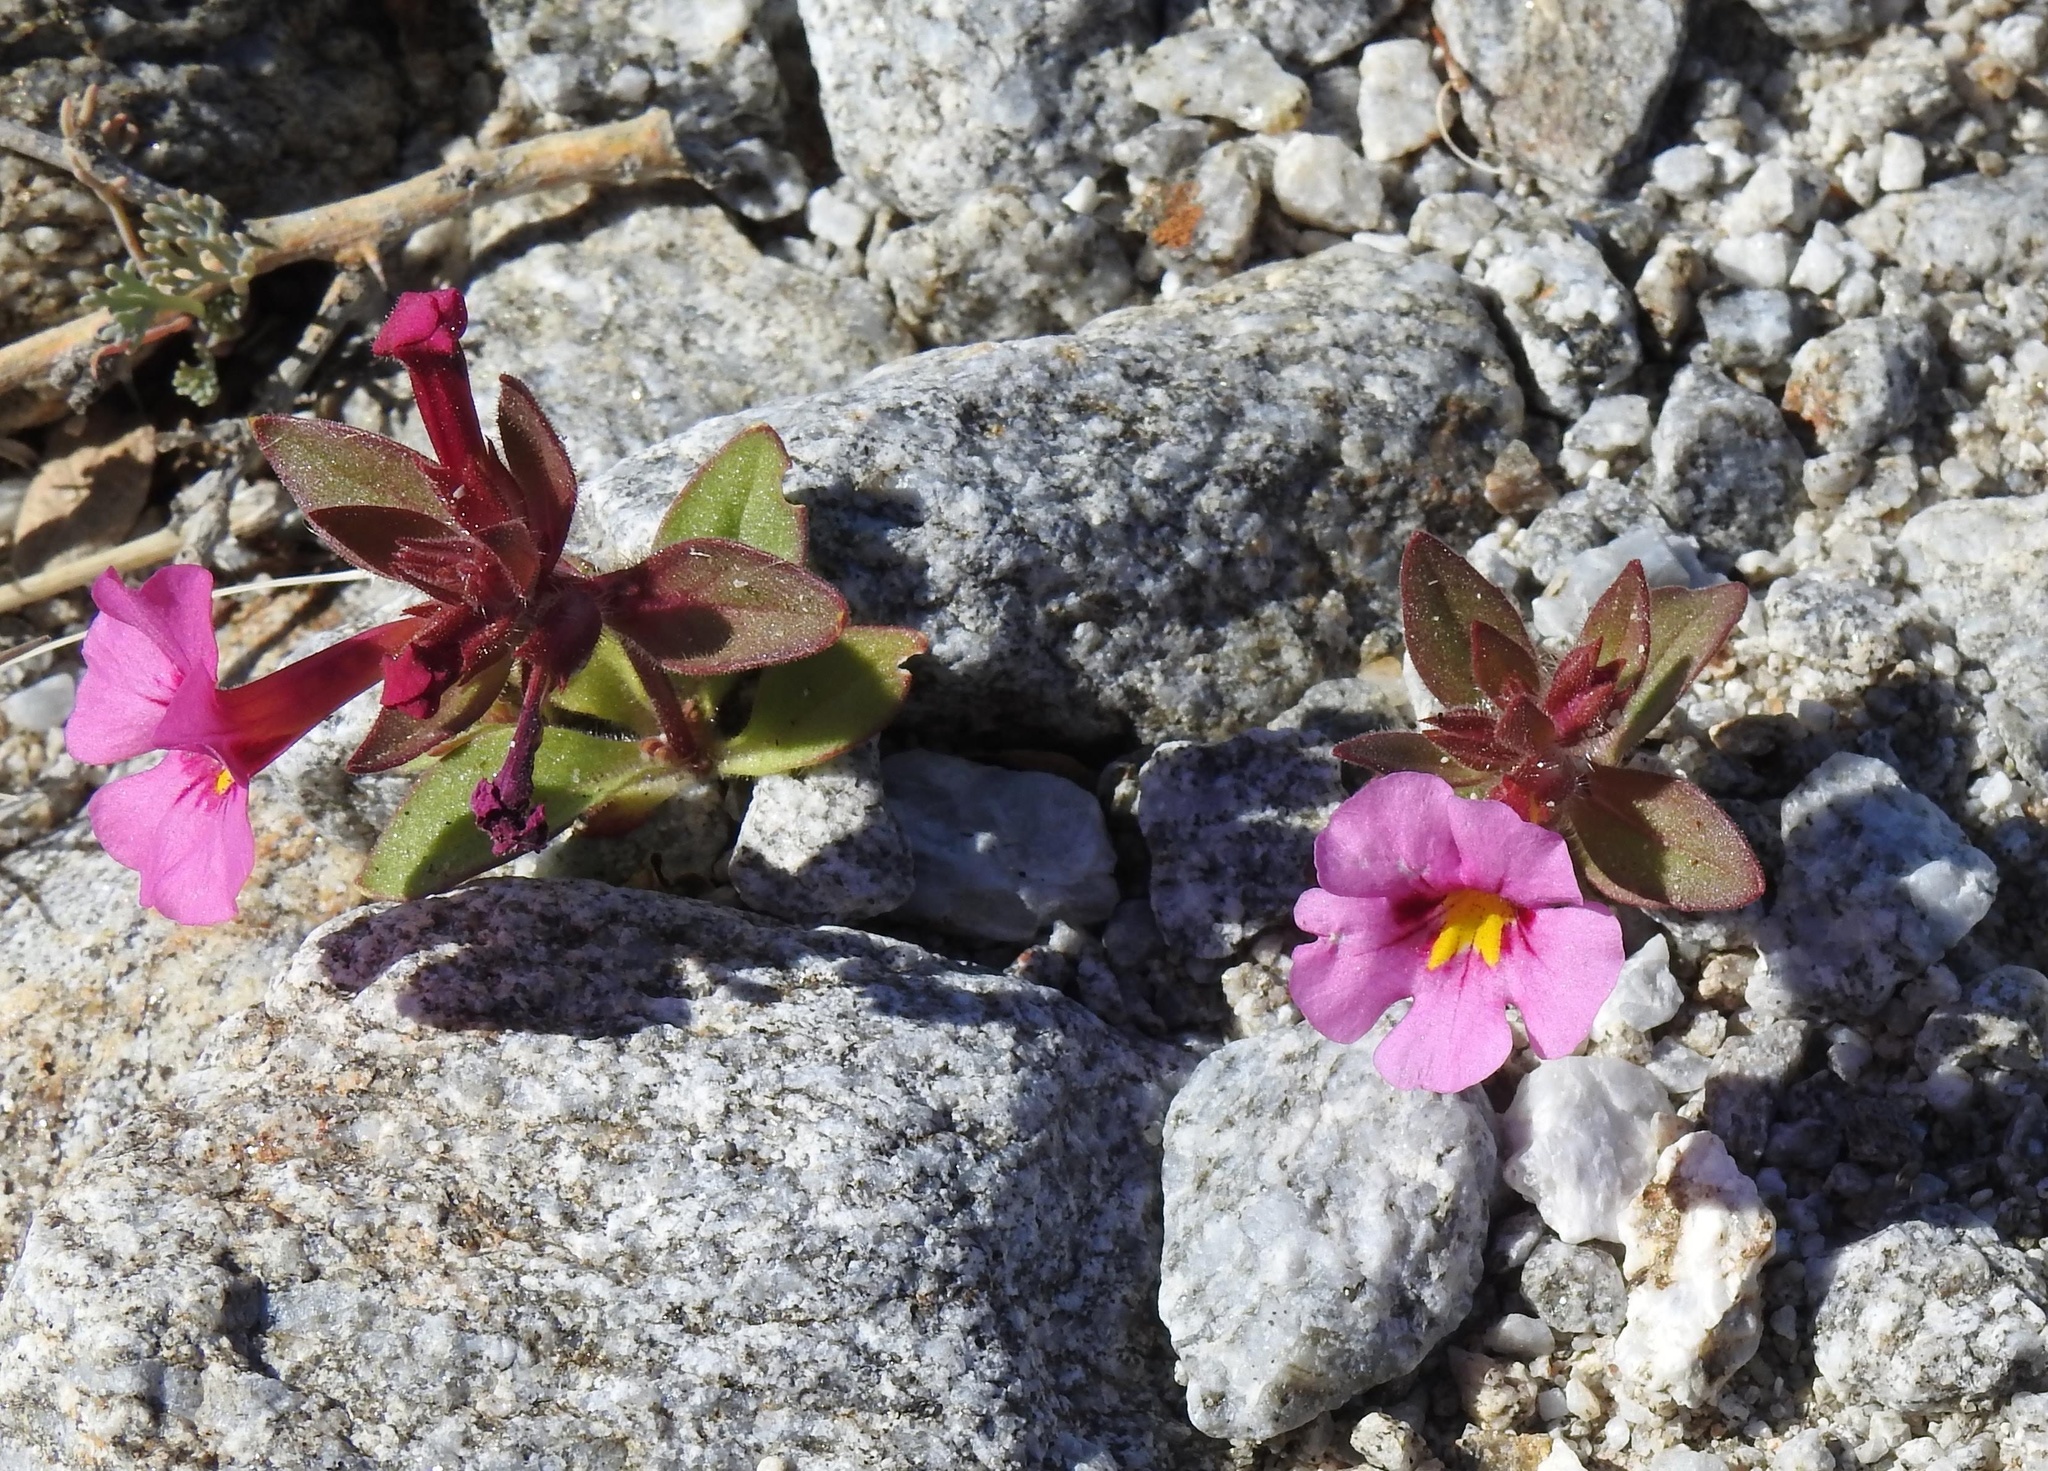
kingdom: Plantae
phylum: Tracheophyta
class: Magnoliopsida
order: Lamiales
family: Phrymaceae
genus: Diplacus
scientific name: Diplacus bigelovii
